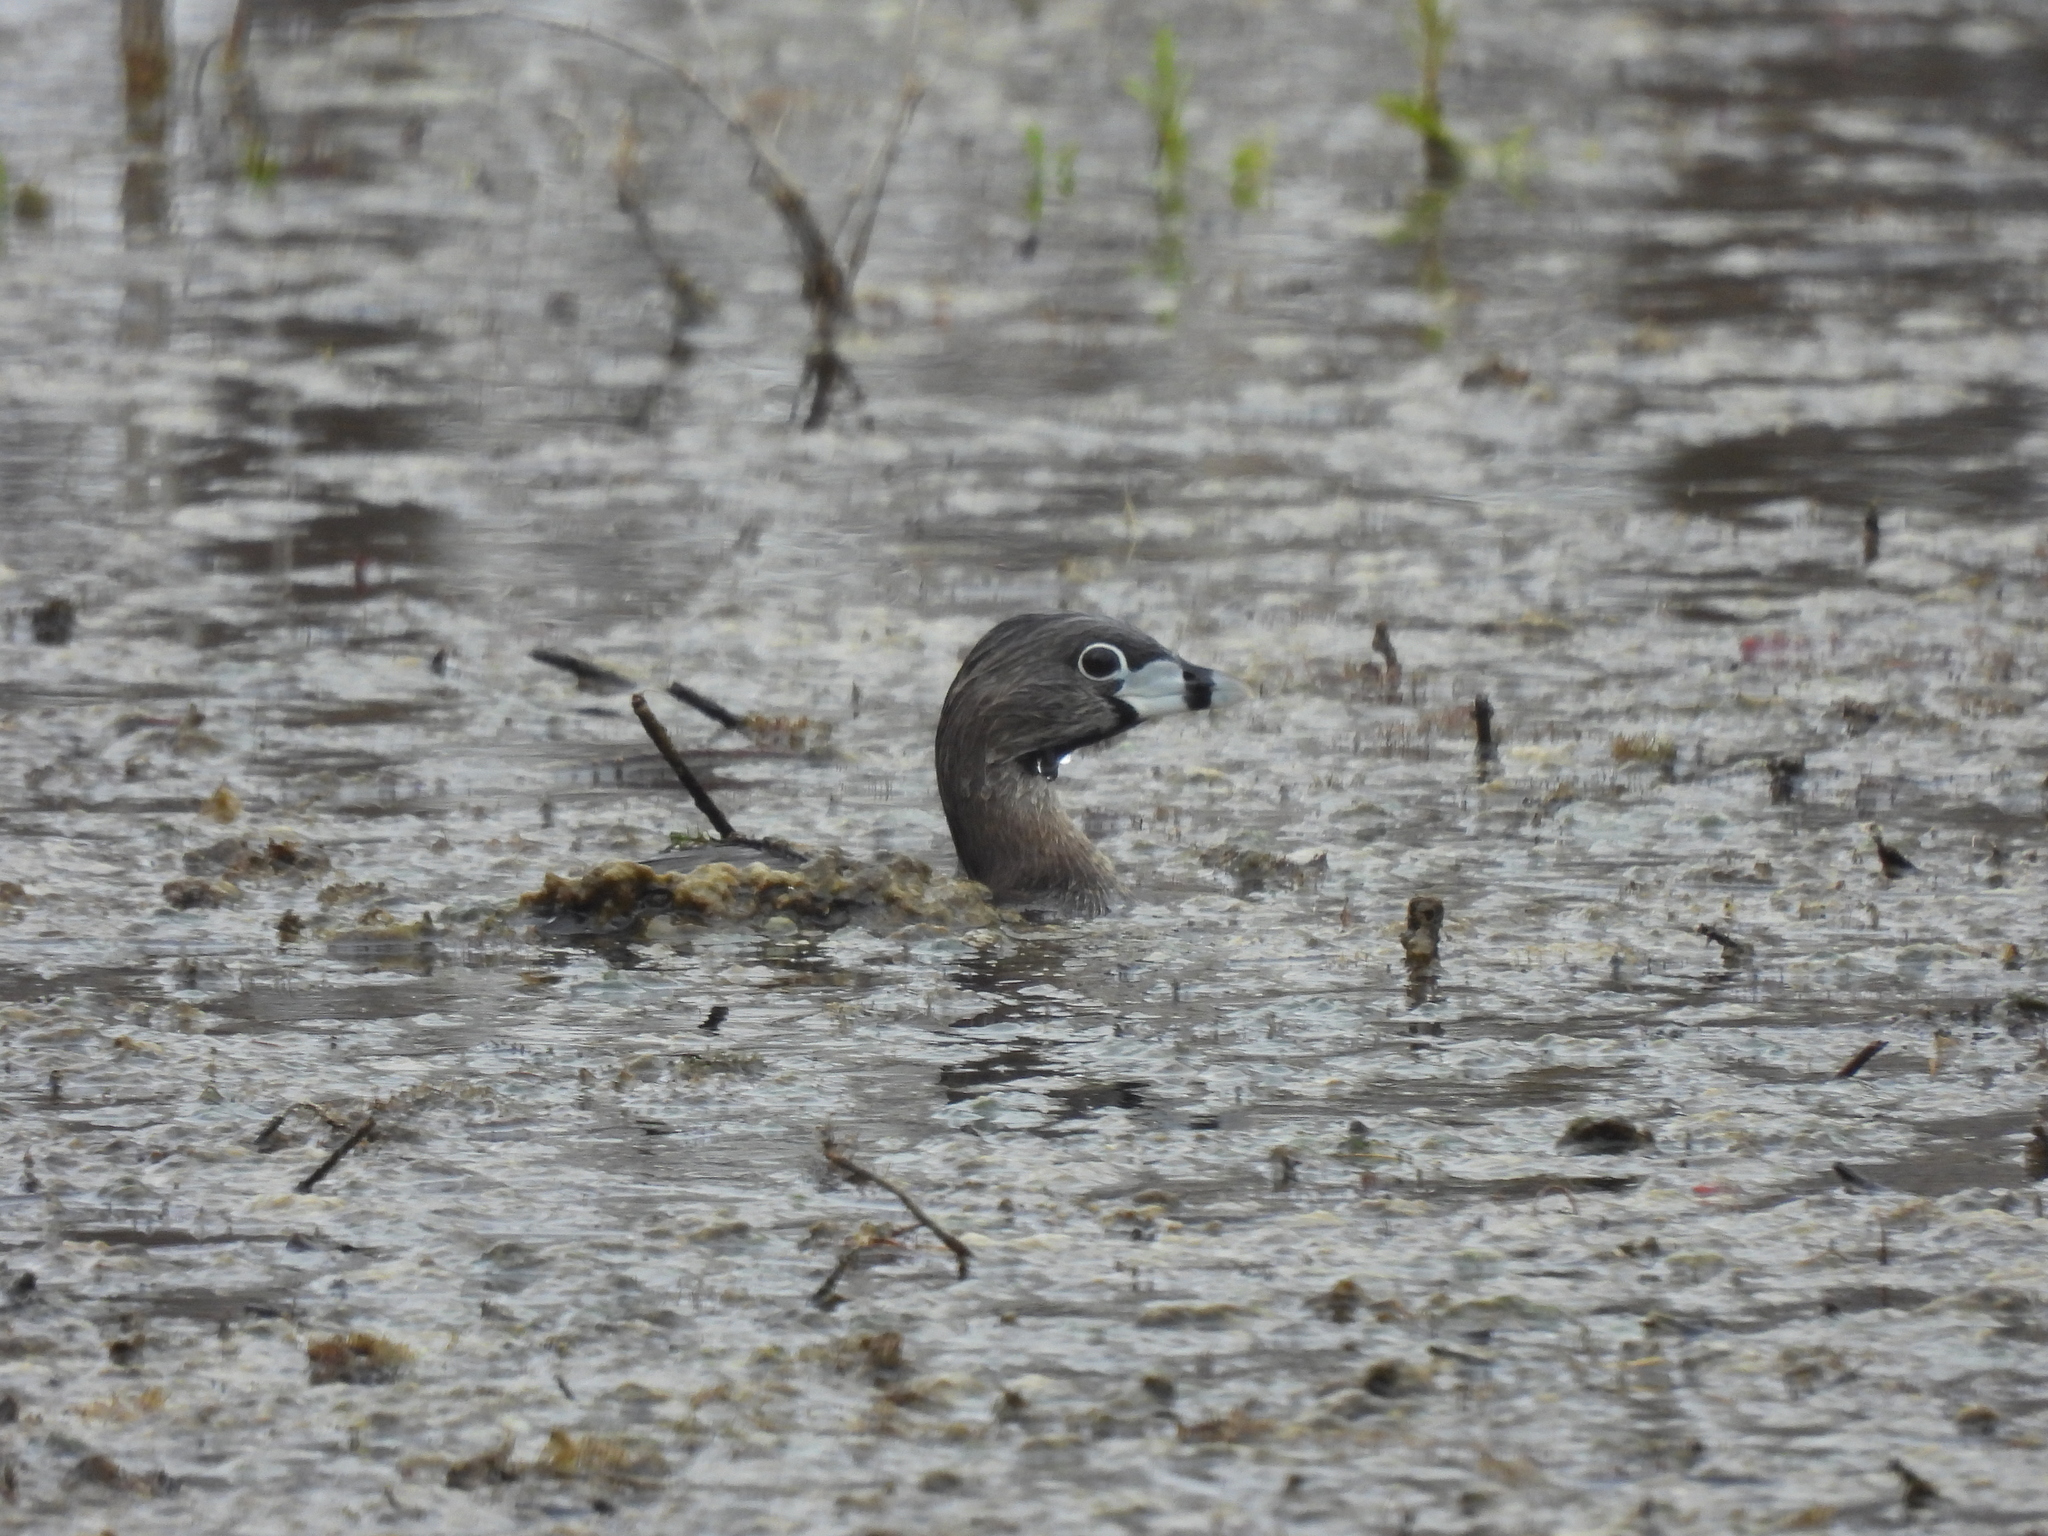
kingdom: Animalia
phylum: Chordata
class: Aves
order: Podicipediformes
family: Podicipedidae
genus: Podilymbus
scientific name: Podilymbus podiceps
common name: Pied-billed grebe
